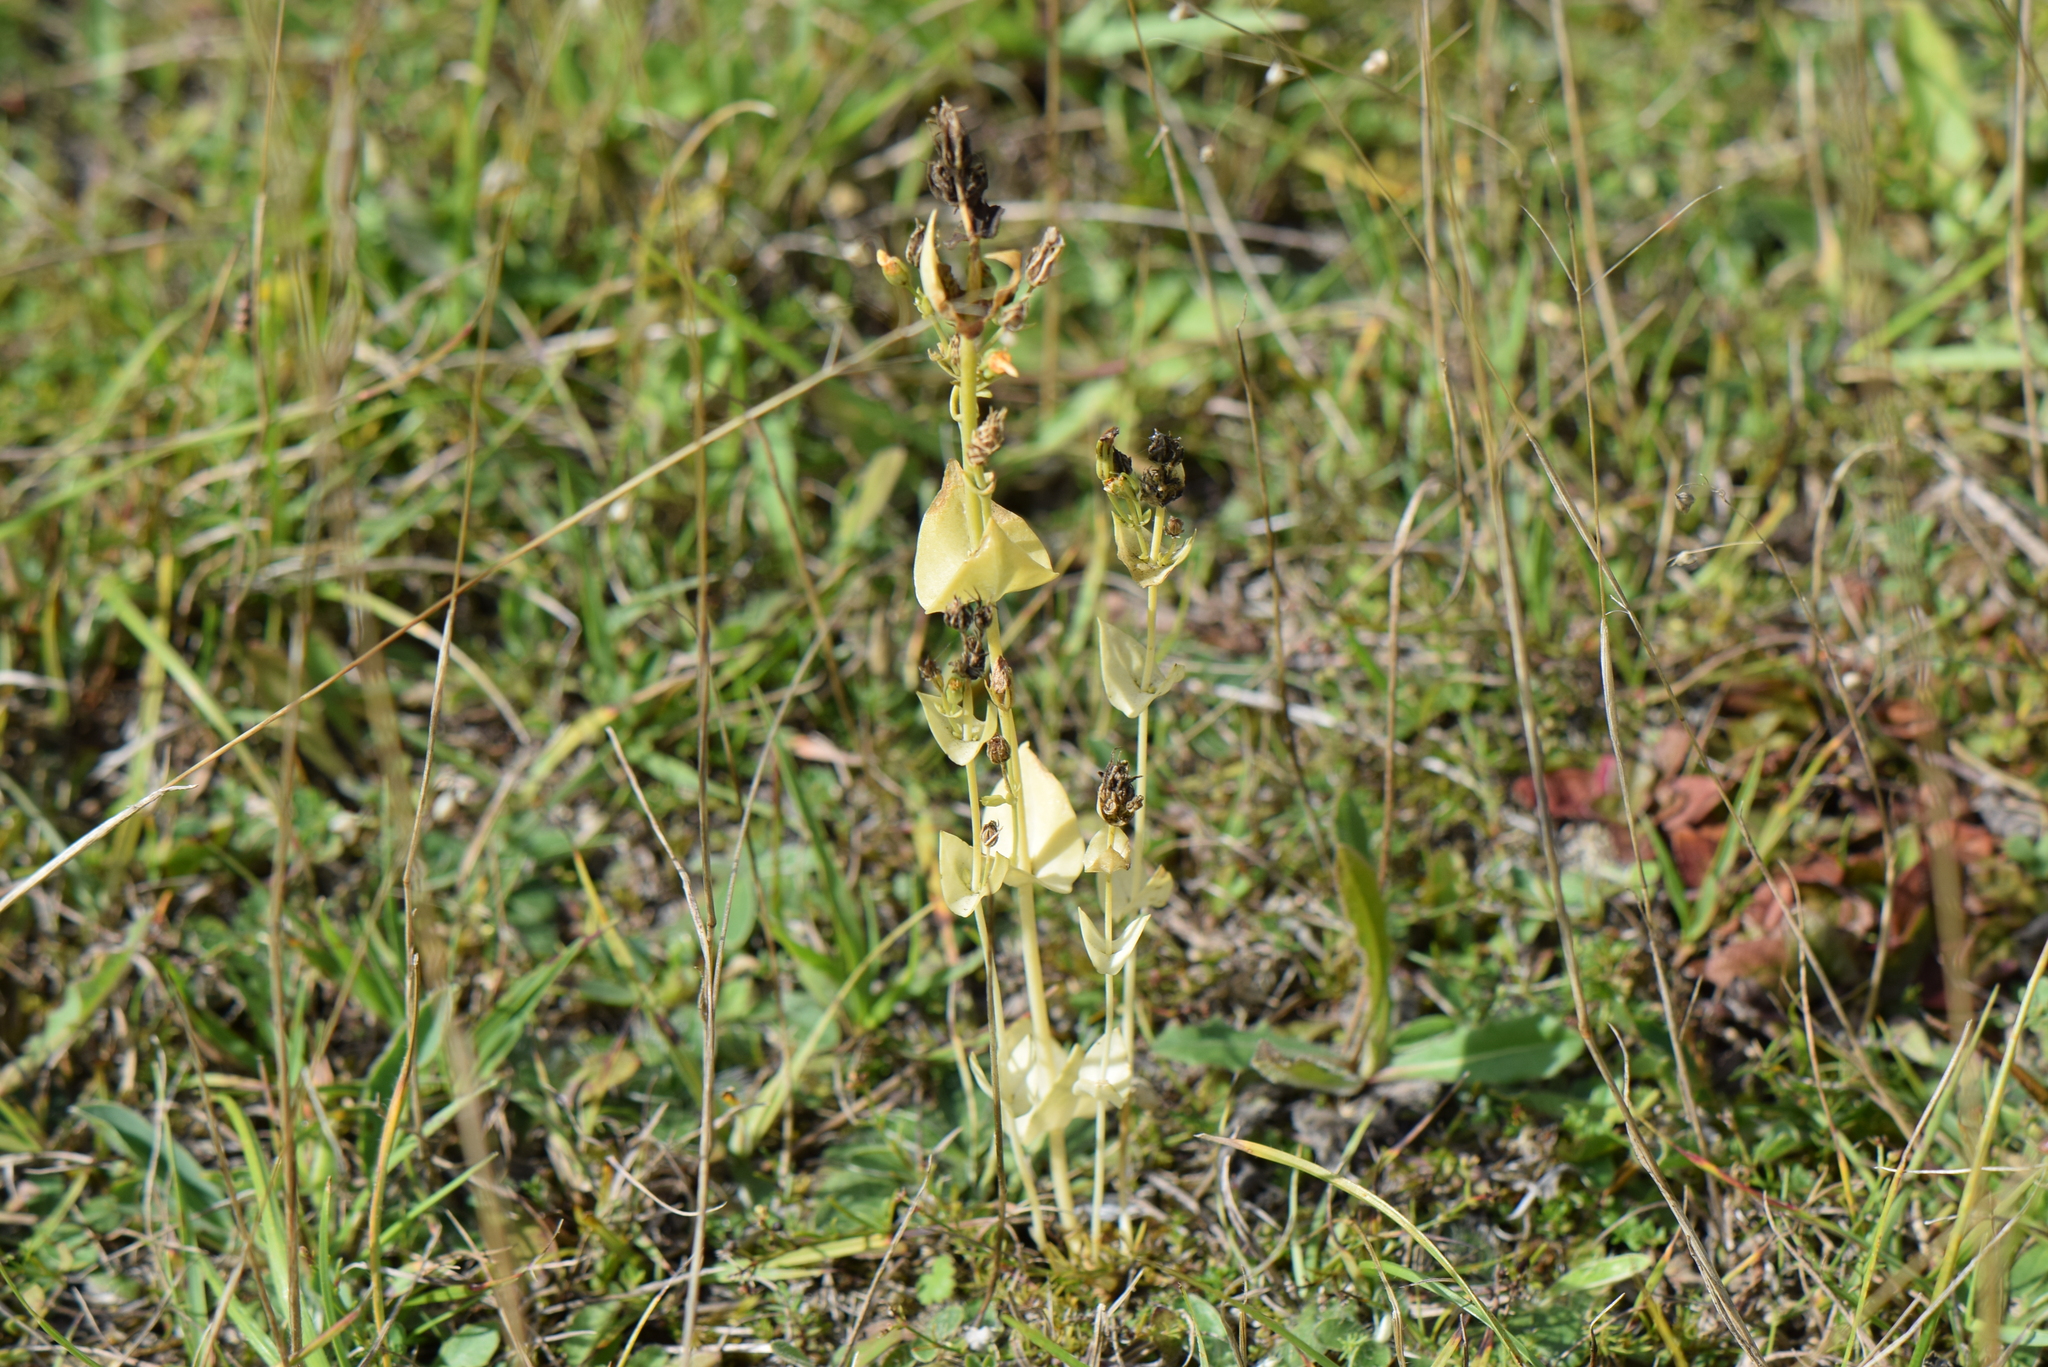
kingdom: Plantae
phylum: Tracheophyta
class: Magnoliopsida
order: Gentianales
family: Gentianaceae
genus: Blackstonia
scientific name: Blackstonia perfoliata
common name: Yellow-wort
